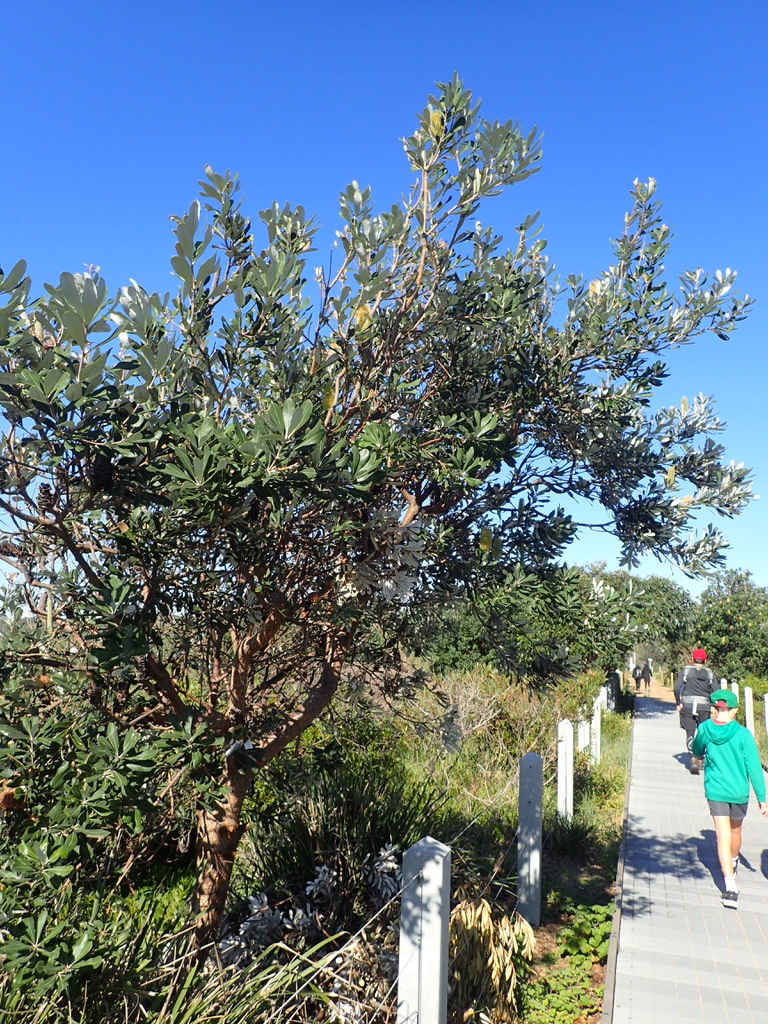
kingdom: Plantae
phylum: Tracheophyta
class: Magnoliopsida
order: Proteales
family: Proteaceae
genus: Banksia
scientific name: Banksia integrifolia
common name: White-honeysuckle
